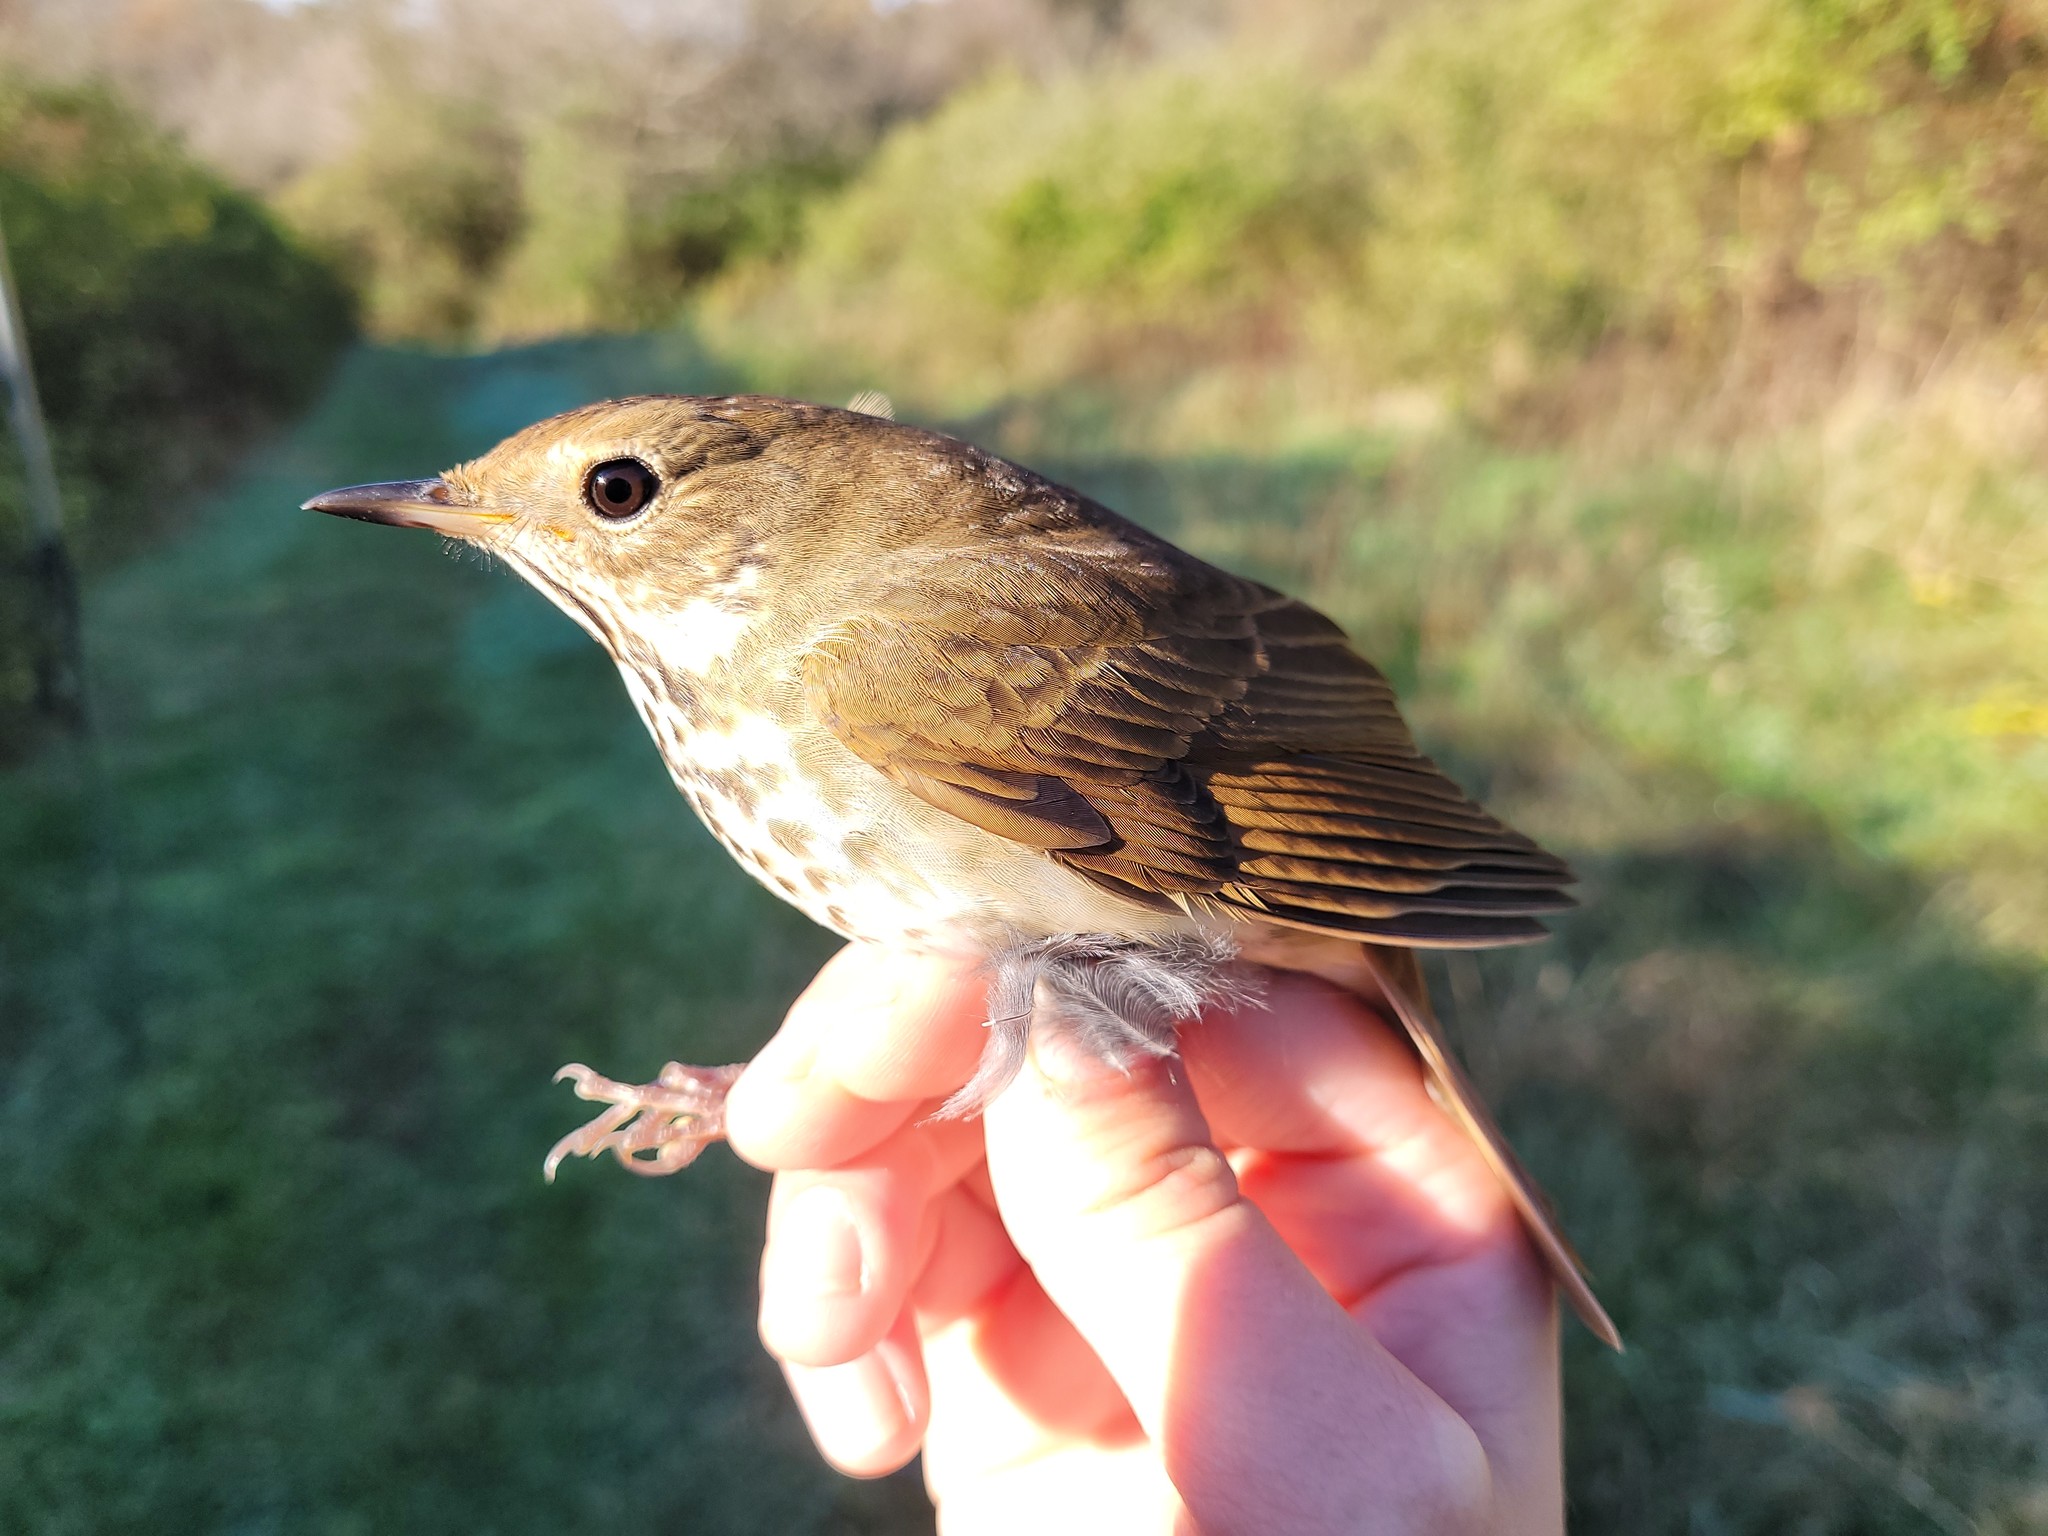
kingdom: Animalia
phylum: Chordata
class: Aves
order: Passeriformes
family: Turdidae
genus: Catharus
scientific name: Catharus guttatus
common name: Hermit thrush
